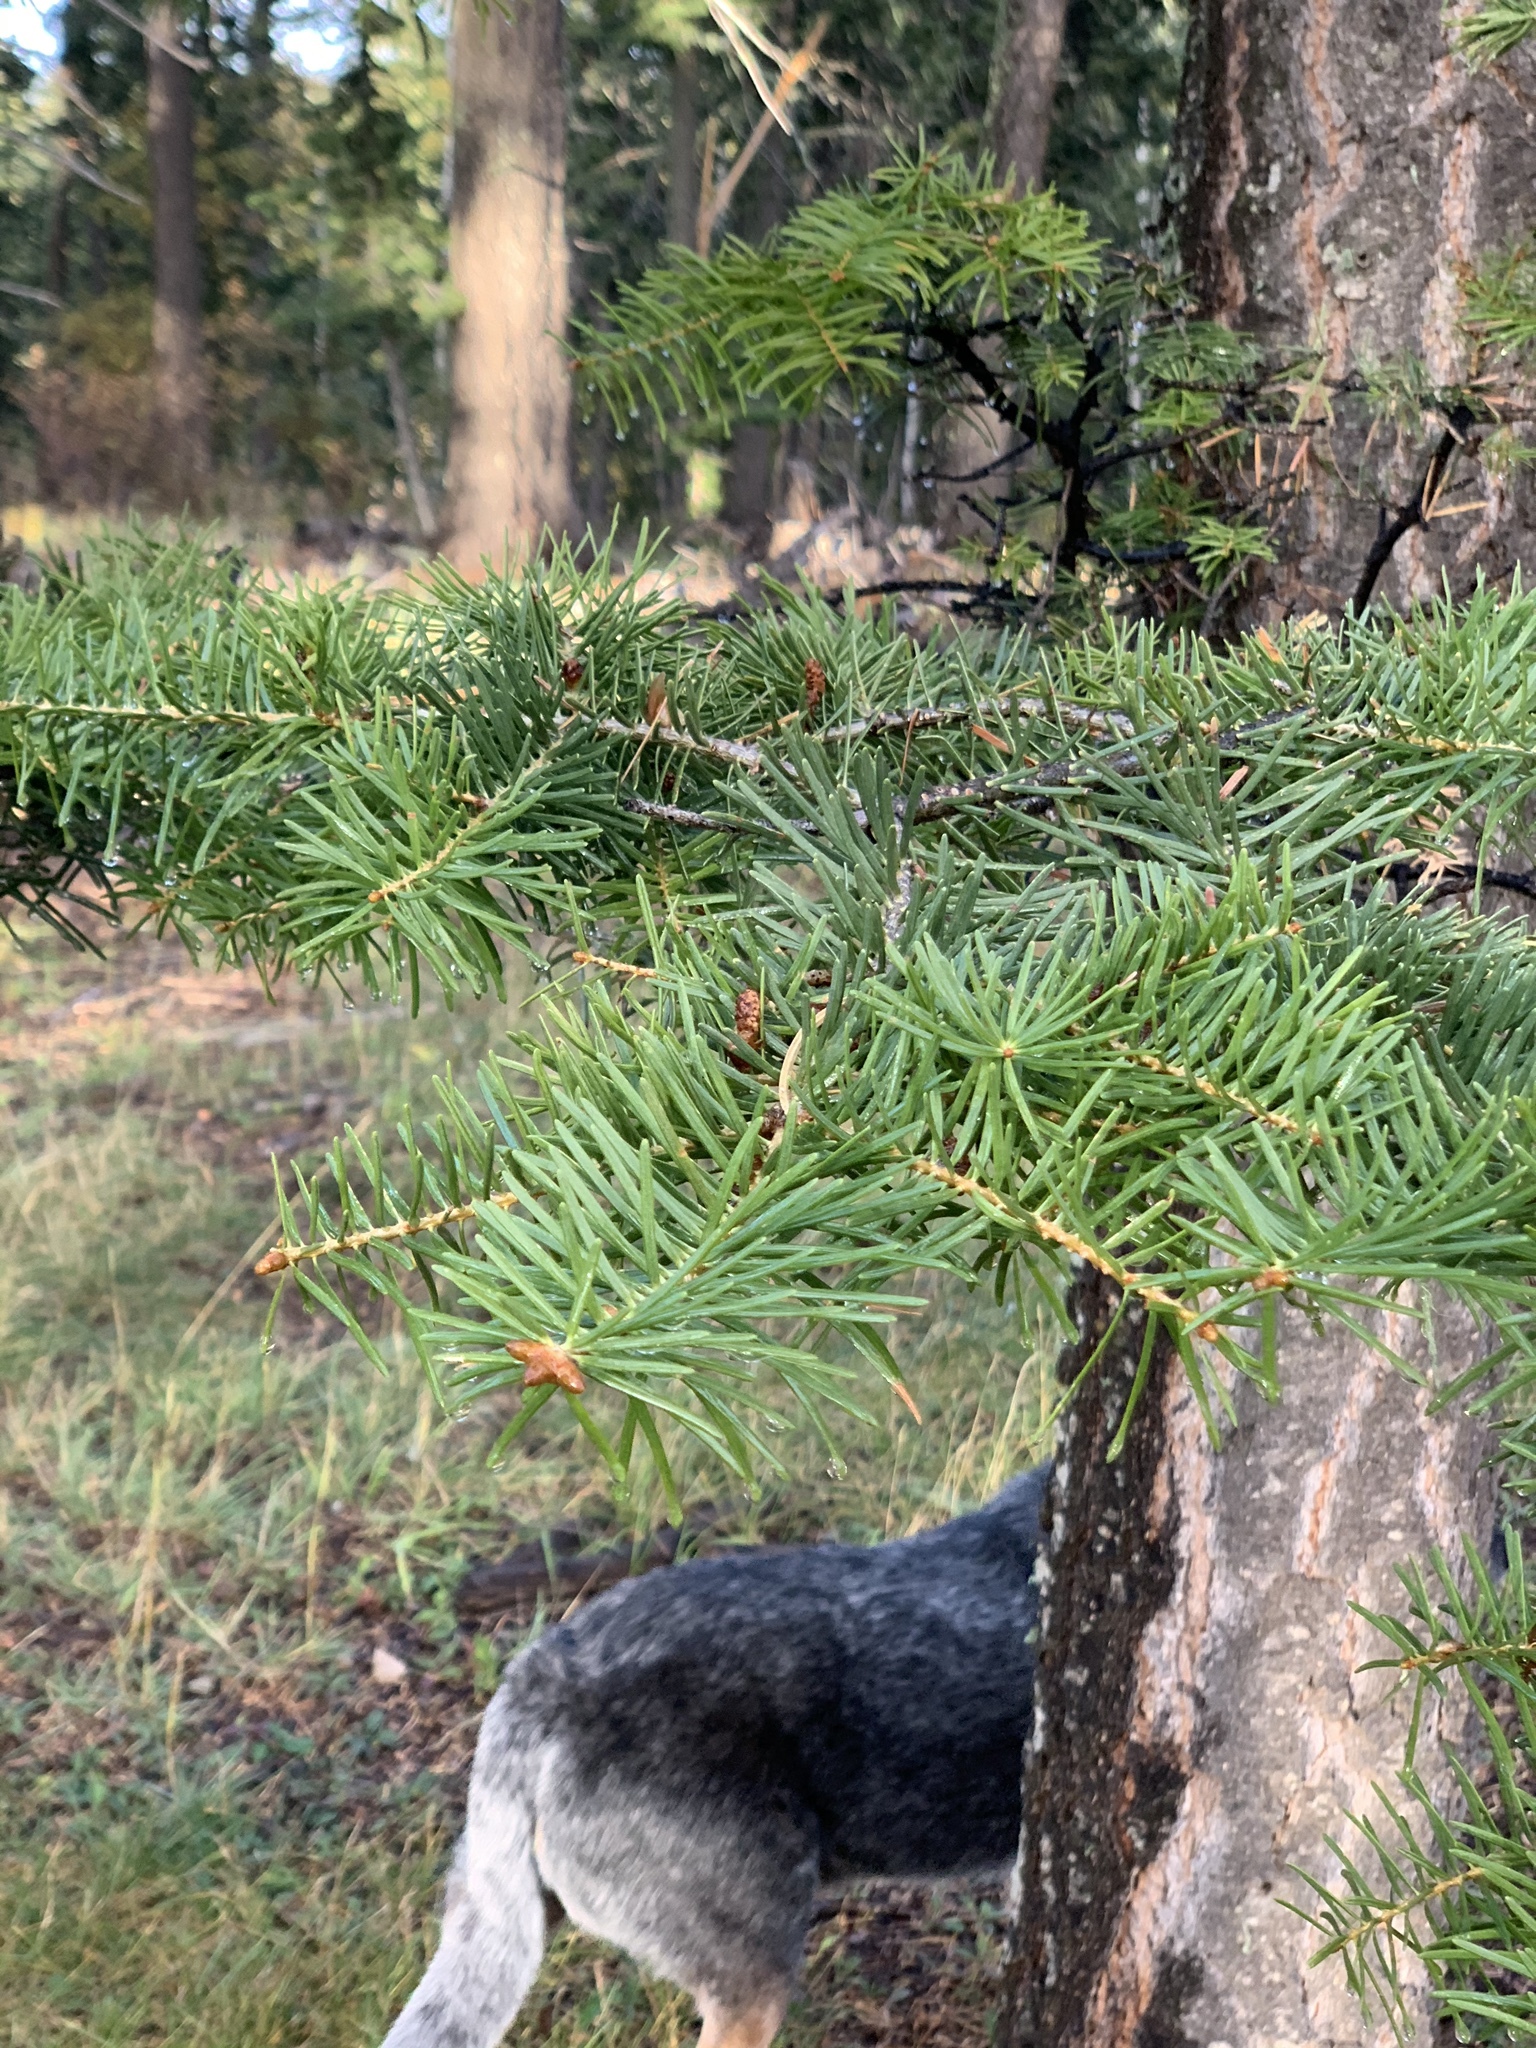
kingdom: Plantae
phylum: Tracheophyta
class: Pinopsida
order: Pinales
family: Pinaceae
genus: Abies
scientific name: Abies concolor
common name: Colorado fir
